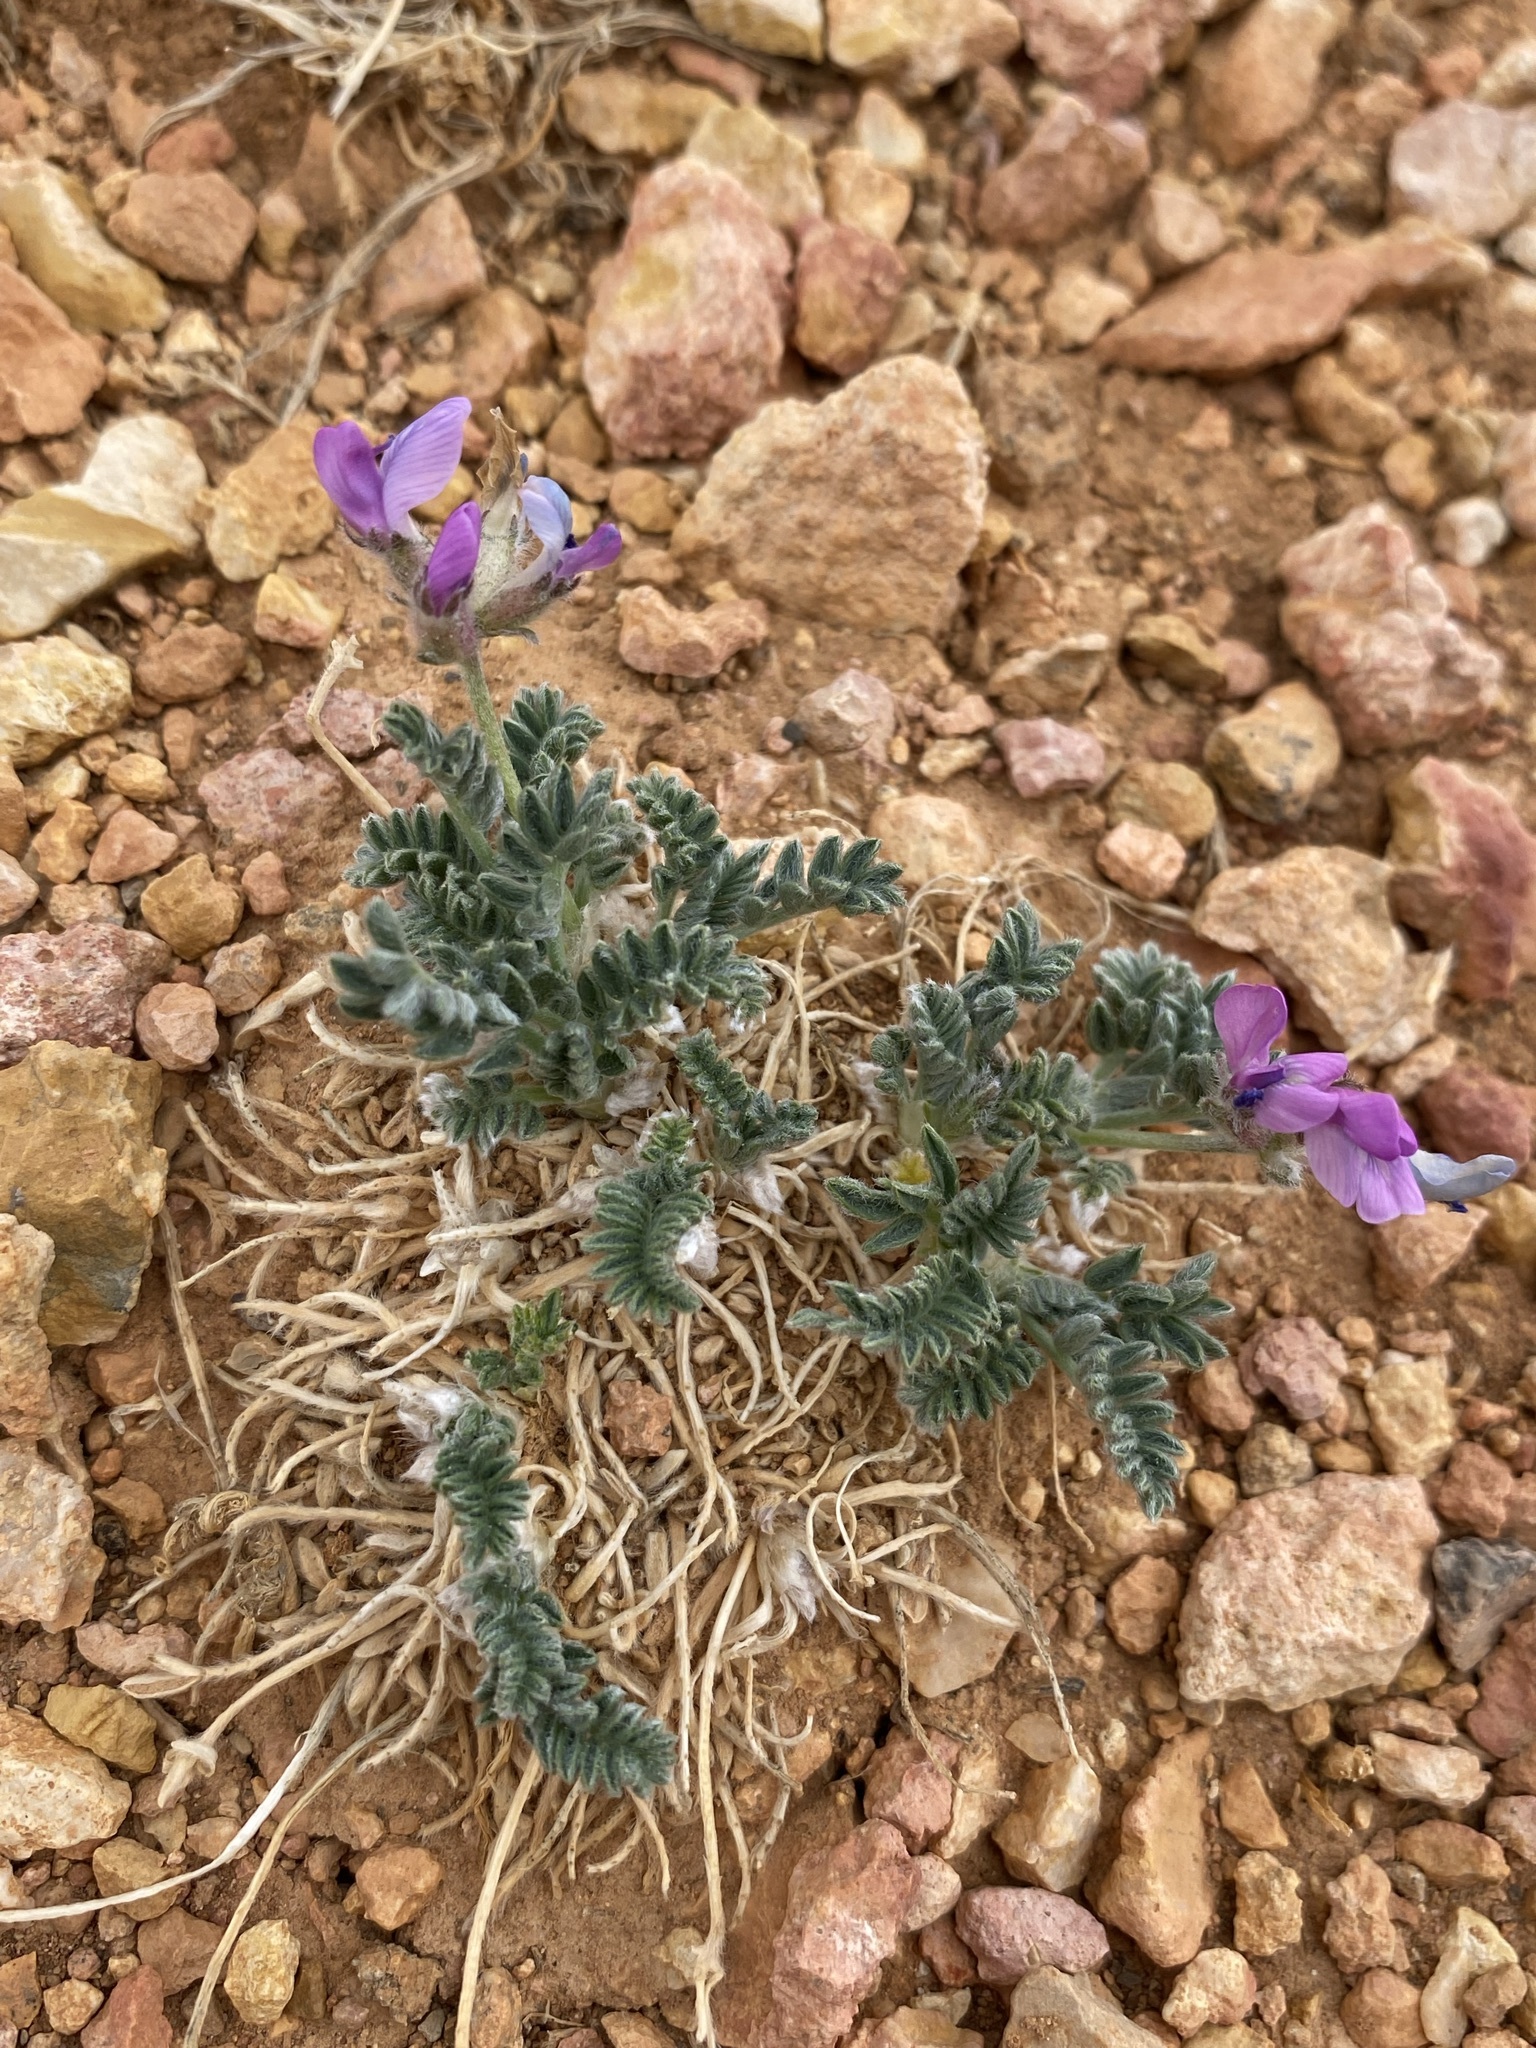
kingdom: Plantae
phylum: Tracheophyta
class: Magnoliopsida
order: Fabales
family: Fabaceae
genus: Oxytropis
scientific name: Oxytropis oreophila
